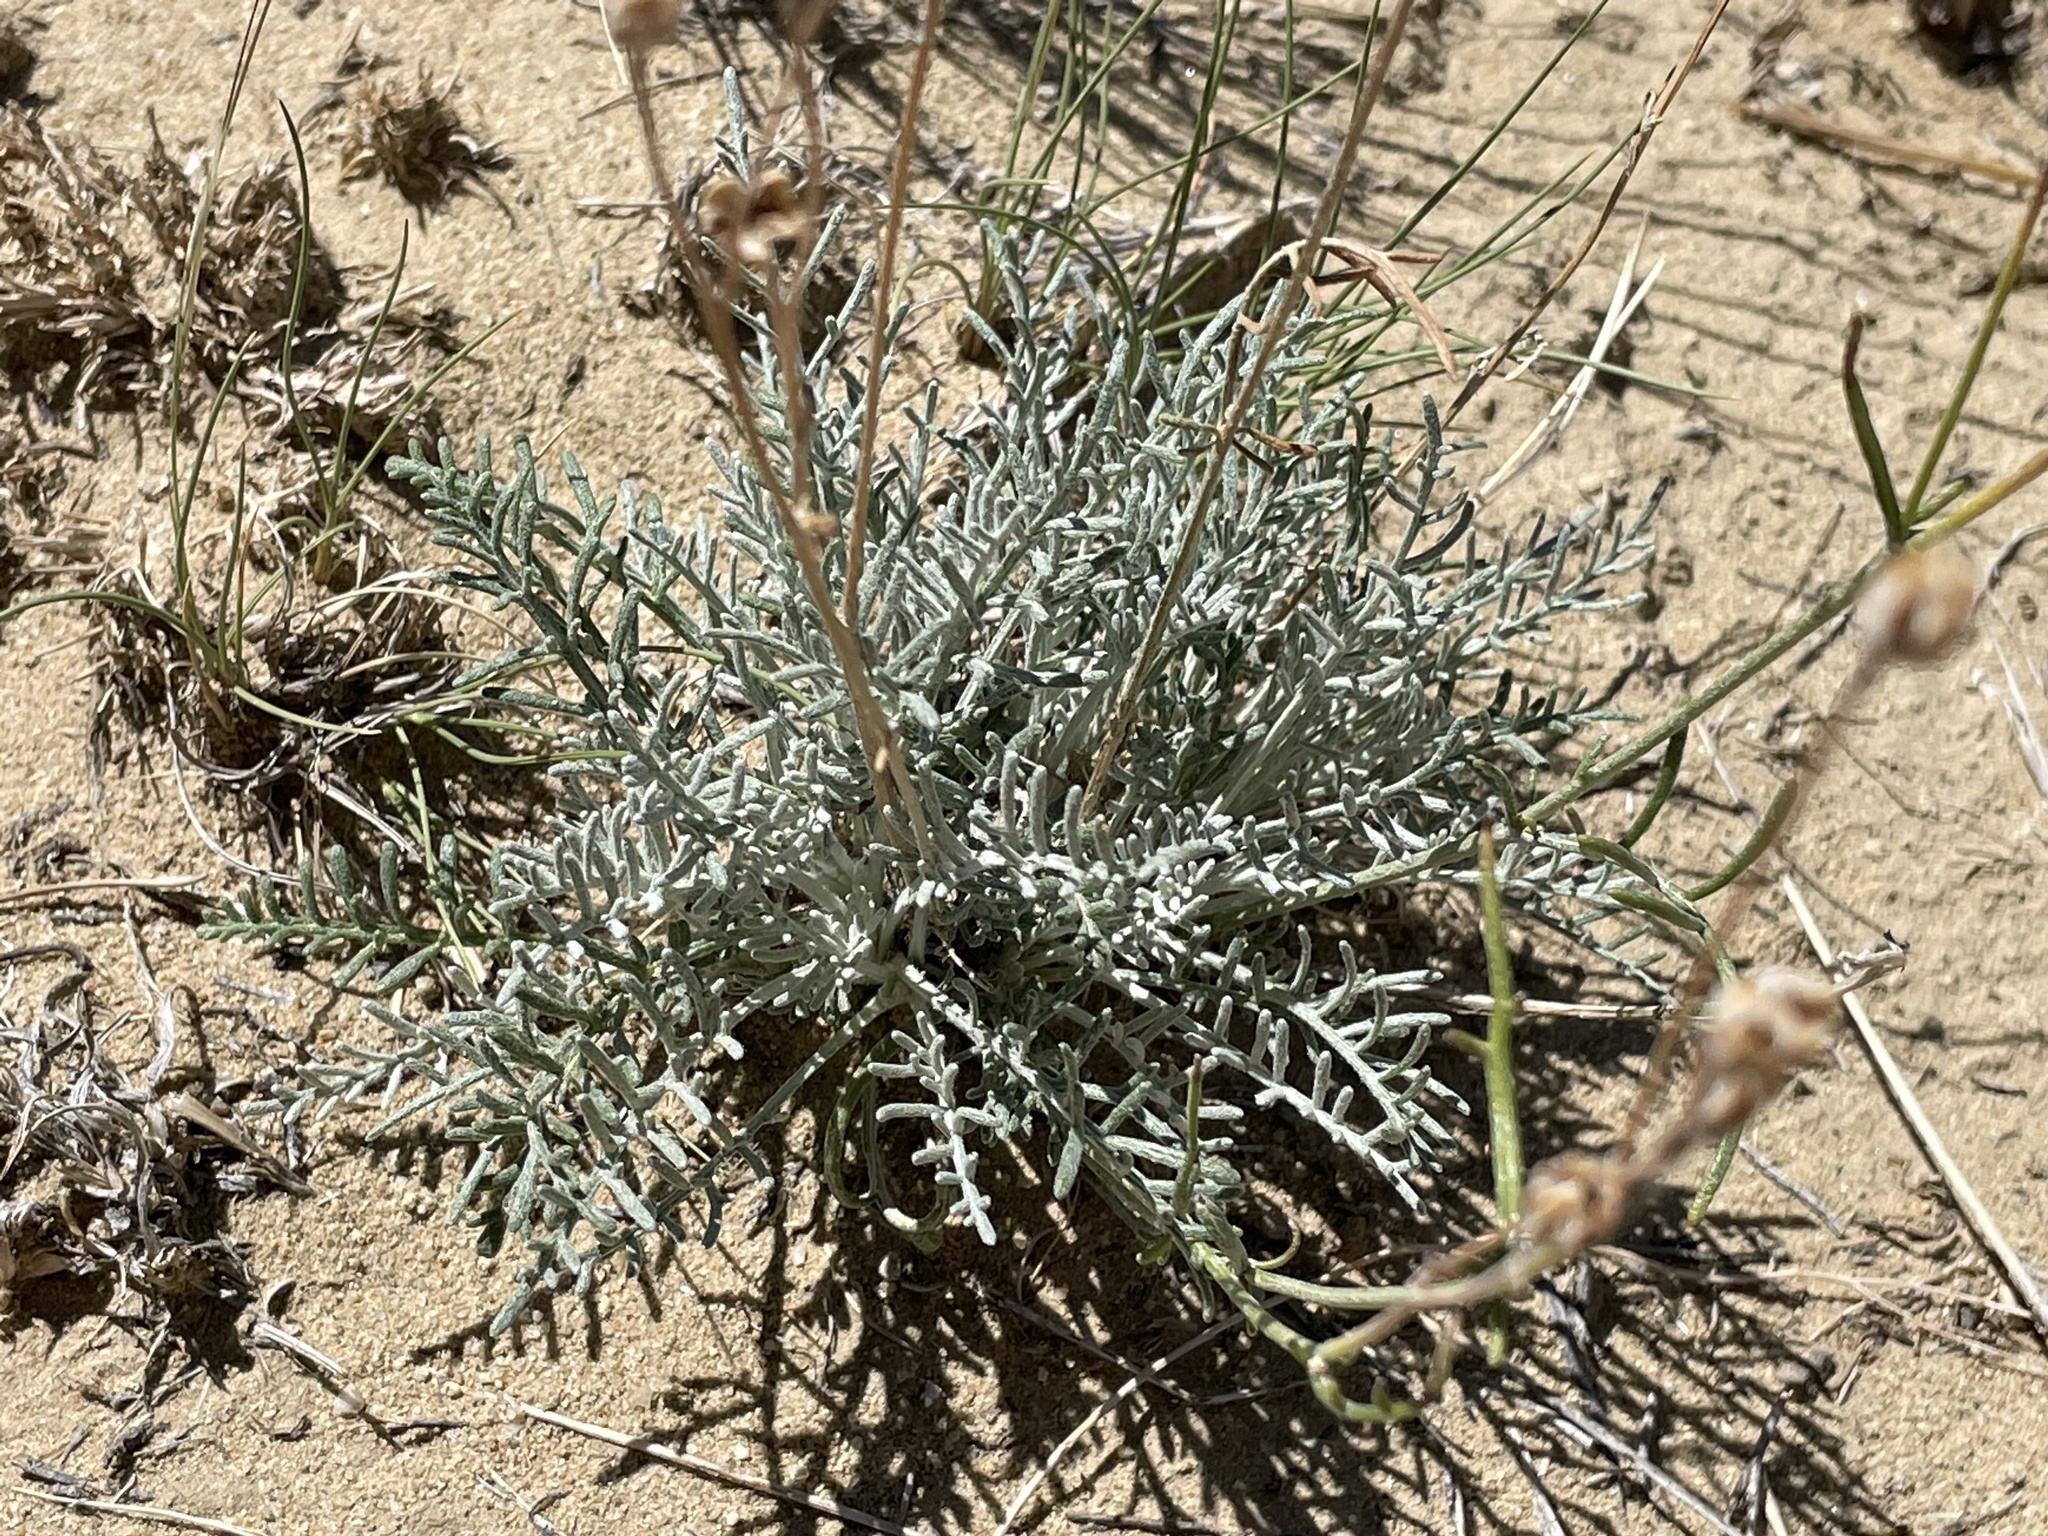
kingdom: Plantae
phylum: Tracheophyta
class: Magnoliopsida
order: Asterales
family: Asteraceae
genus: Hymenopappus
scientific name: Hymenopappus filifolius
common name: Columbia cutleaf
